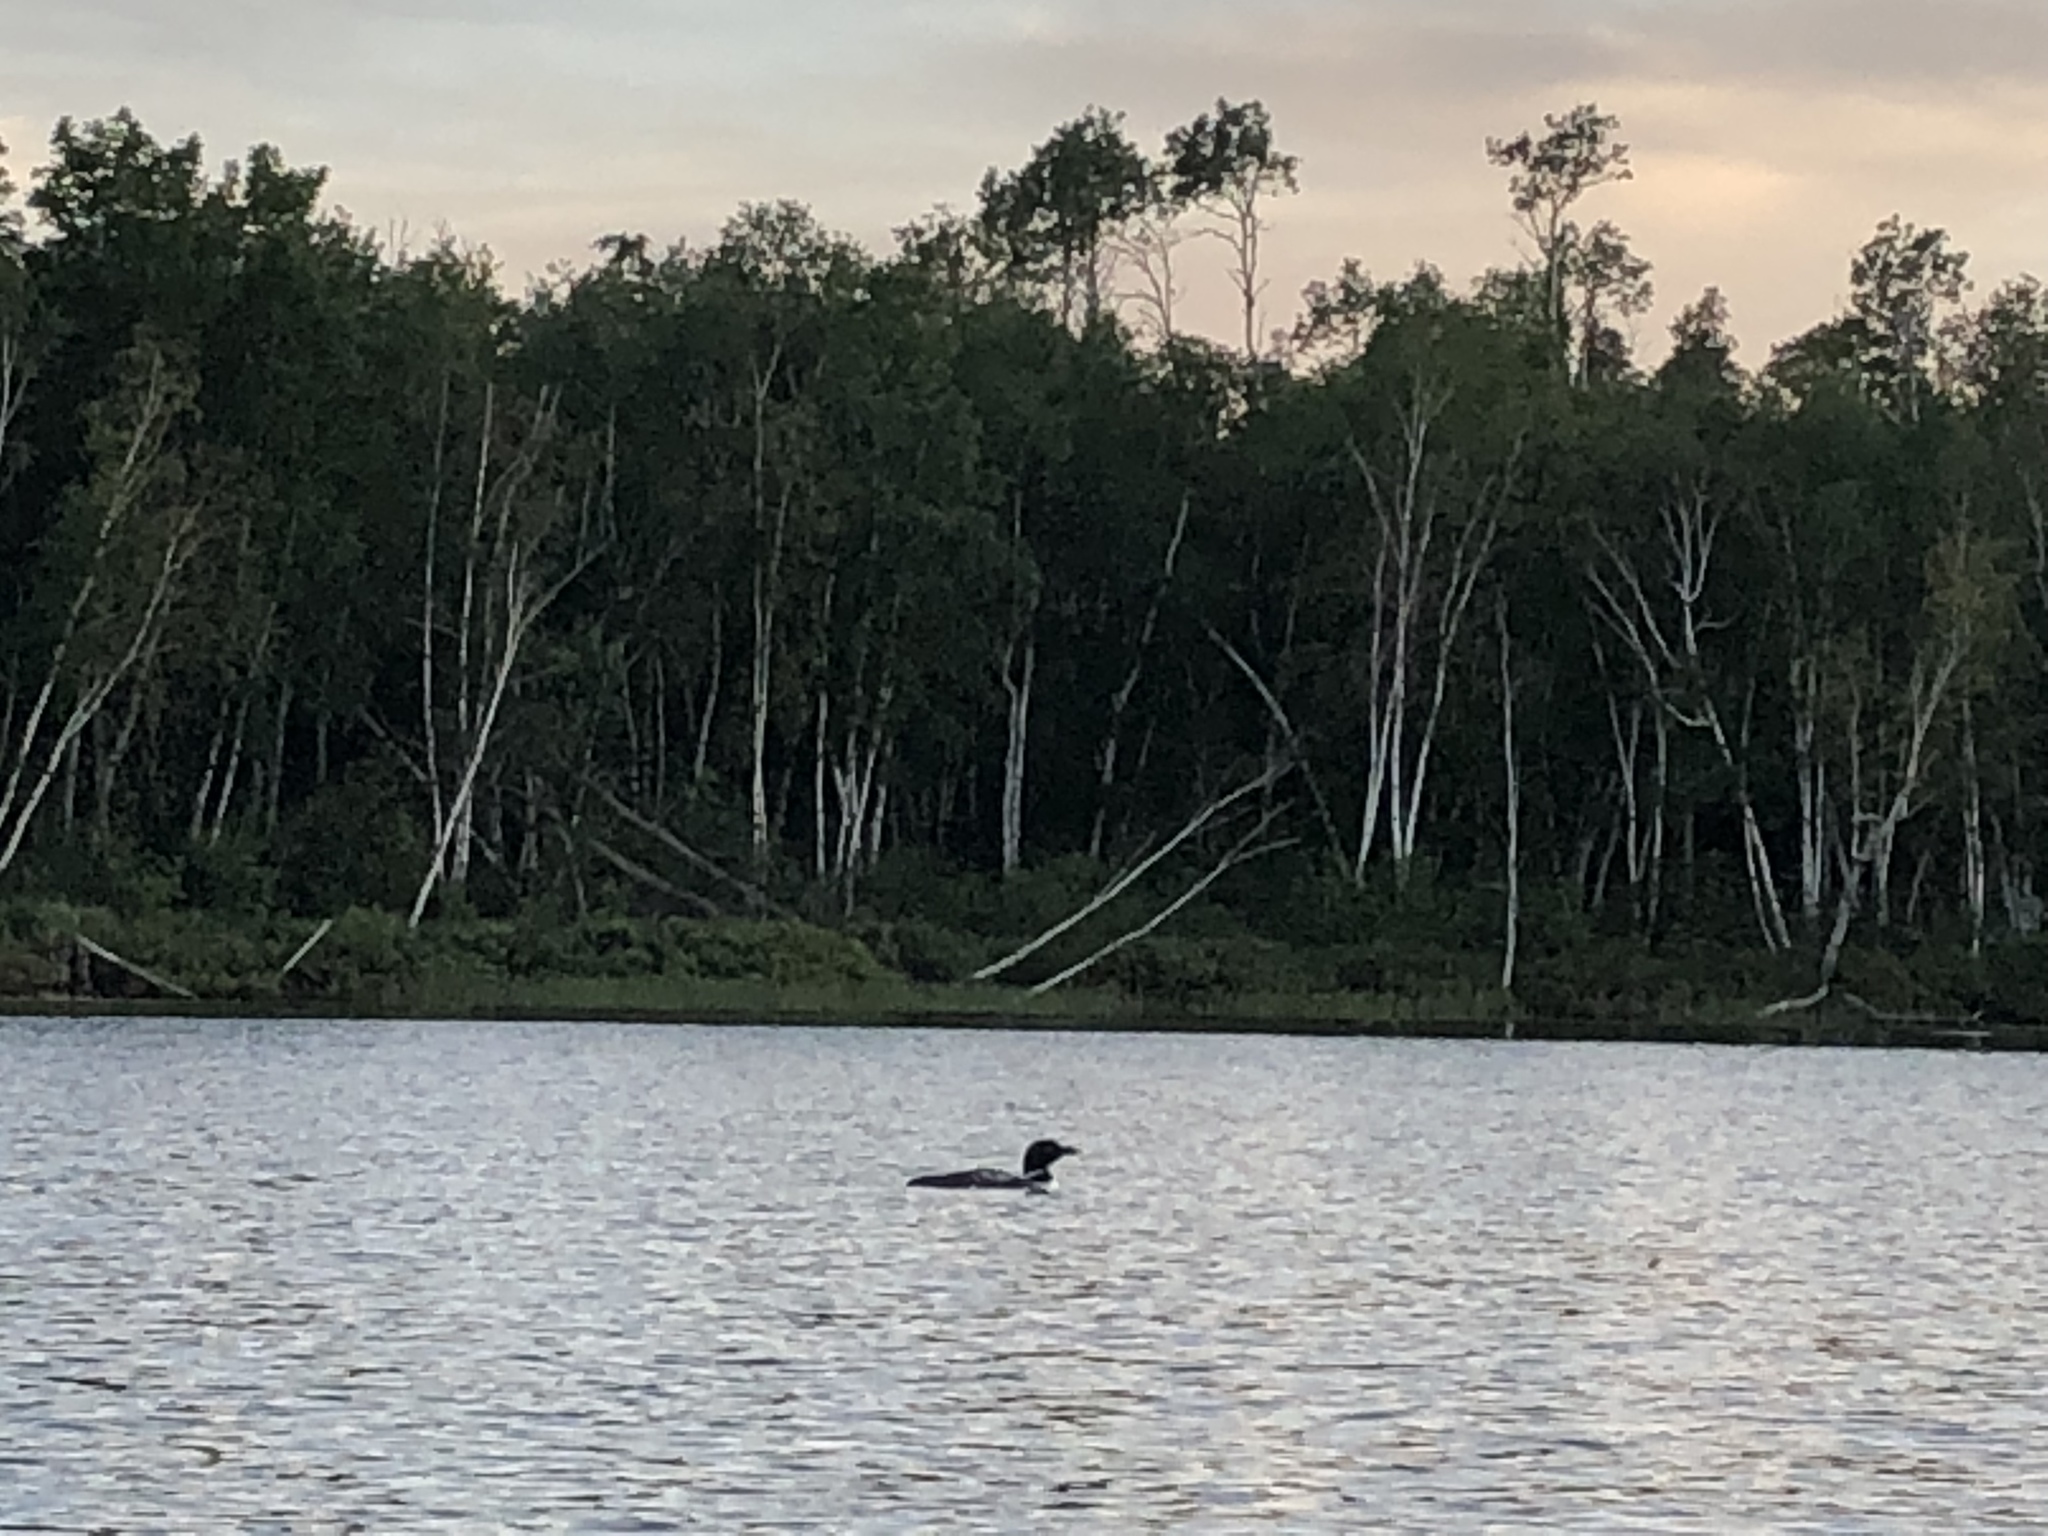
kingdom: Animalia
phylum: Chordata
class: Aves
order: Gaviiformes
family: Gaviidae
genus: Gavia
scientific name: Gavia immer
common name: Common loon
